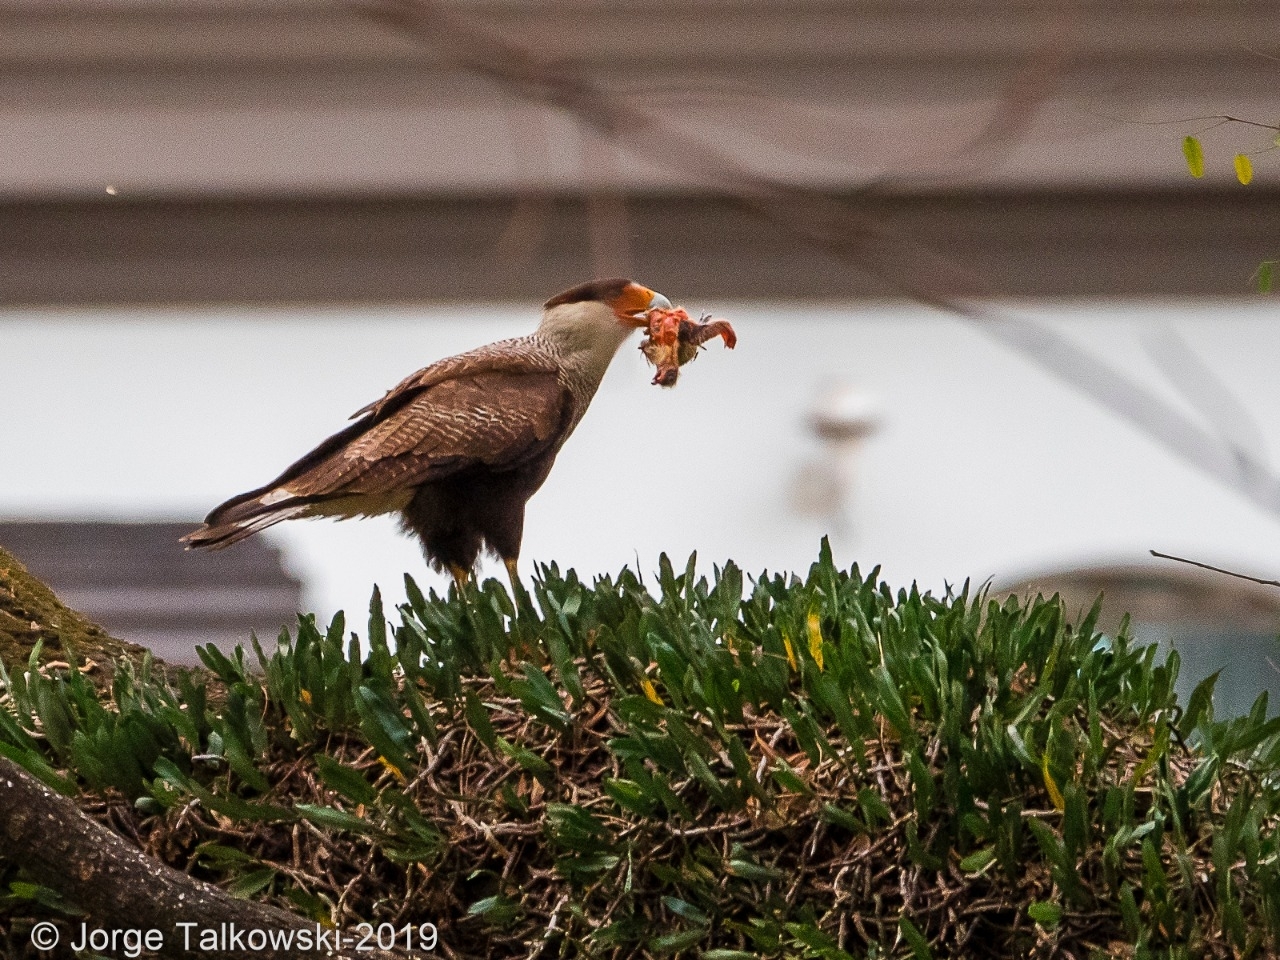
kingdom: Animalia
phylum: Chordata
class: Aves
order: Falconiformes
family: Falconidae
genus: Caracara
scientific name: Caracara plancus
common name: Southern caracara
